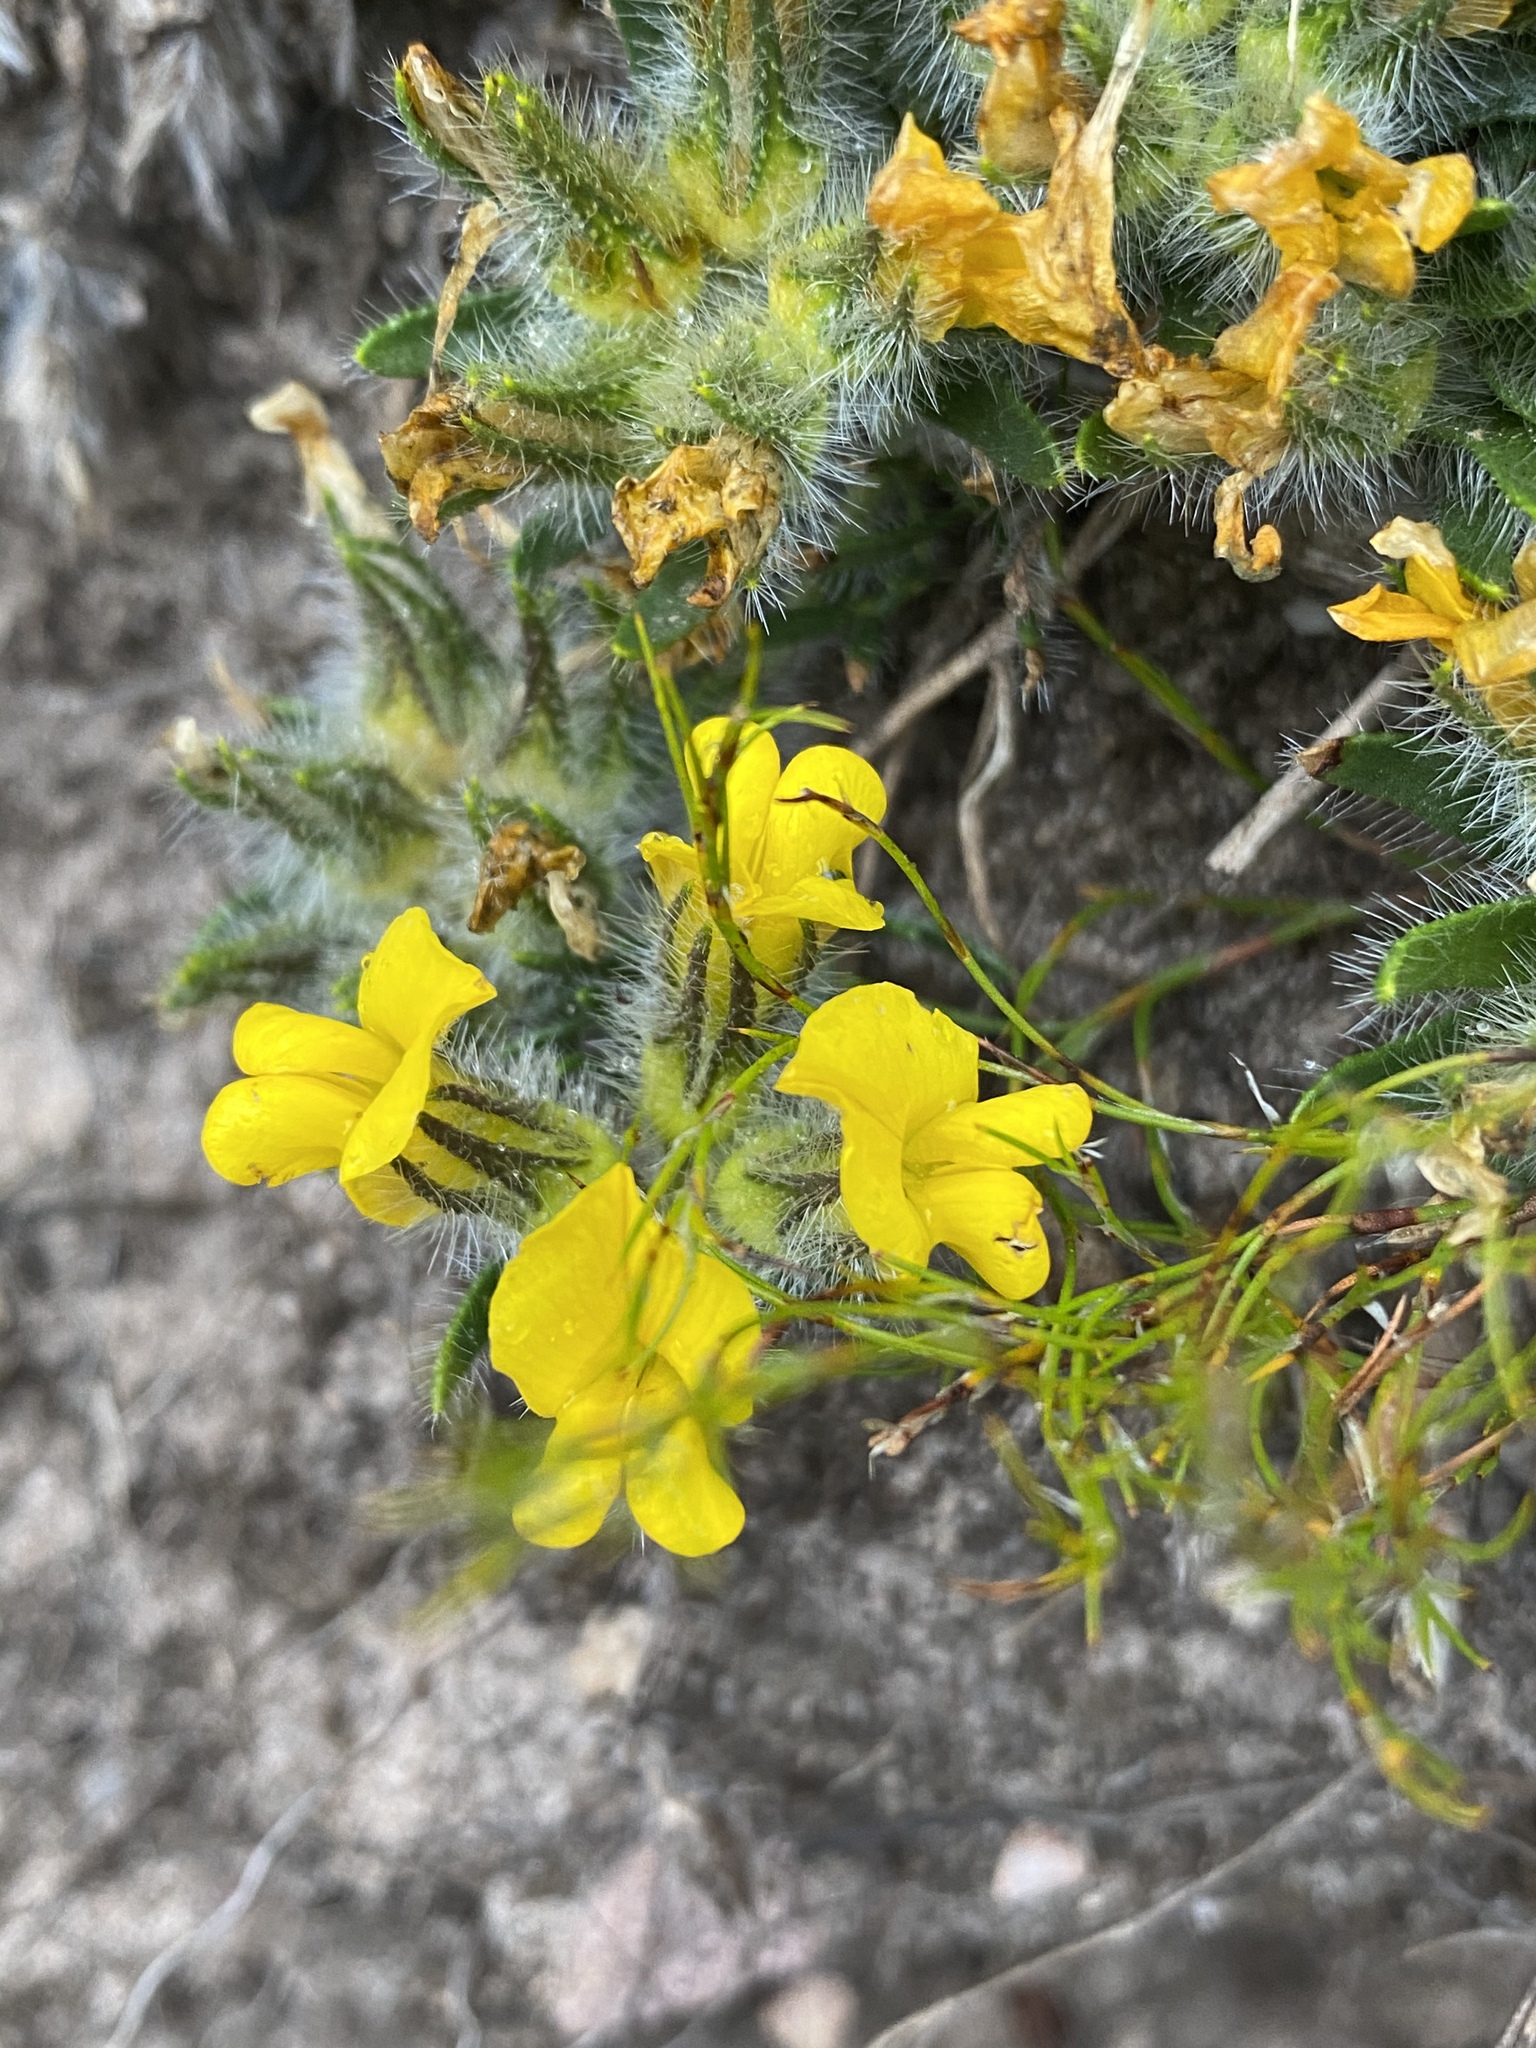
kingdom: Plantae
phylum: Tracheophyta
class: Magnoliopsida
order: Fabales
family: Fabaceae
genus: Aspalathus
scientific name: Aspalathus ciliaris
